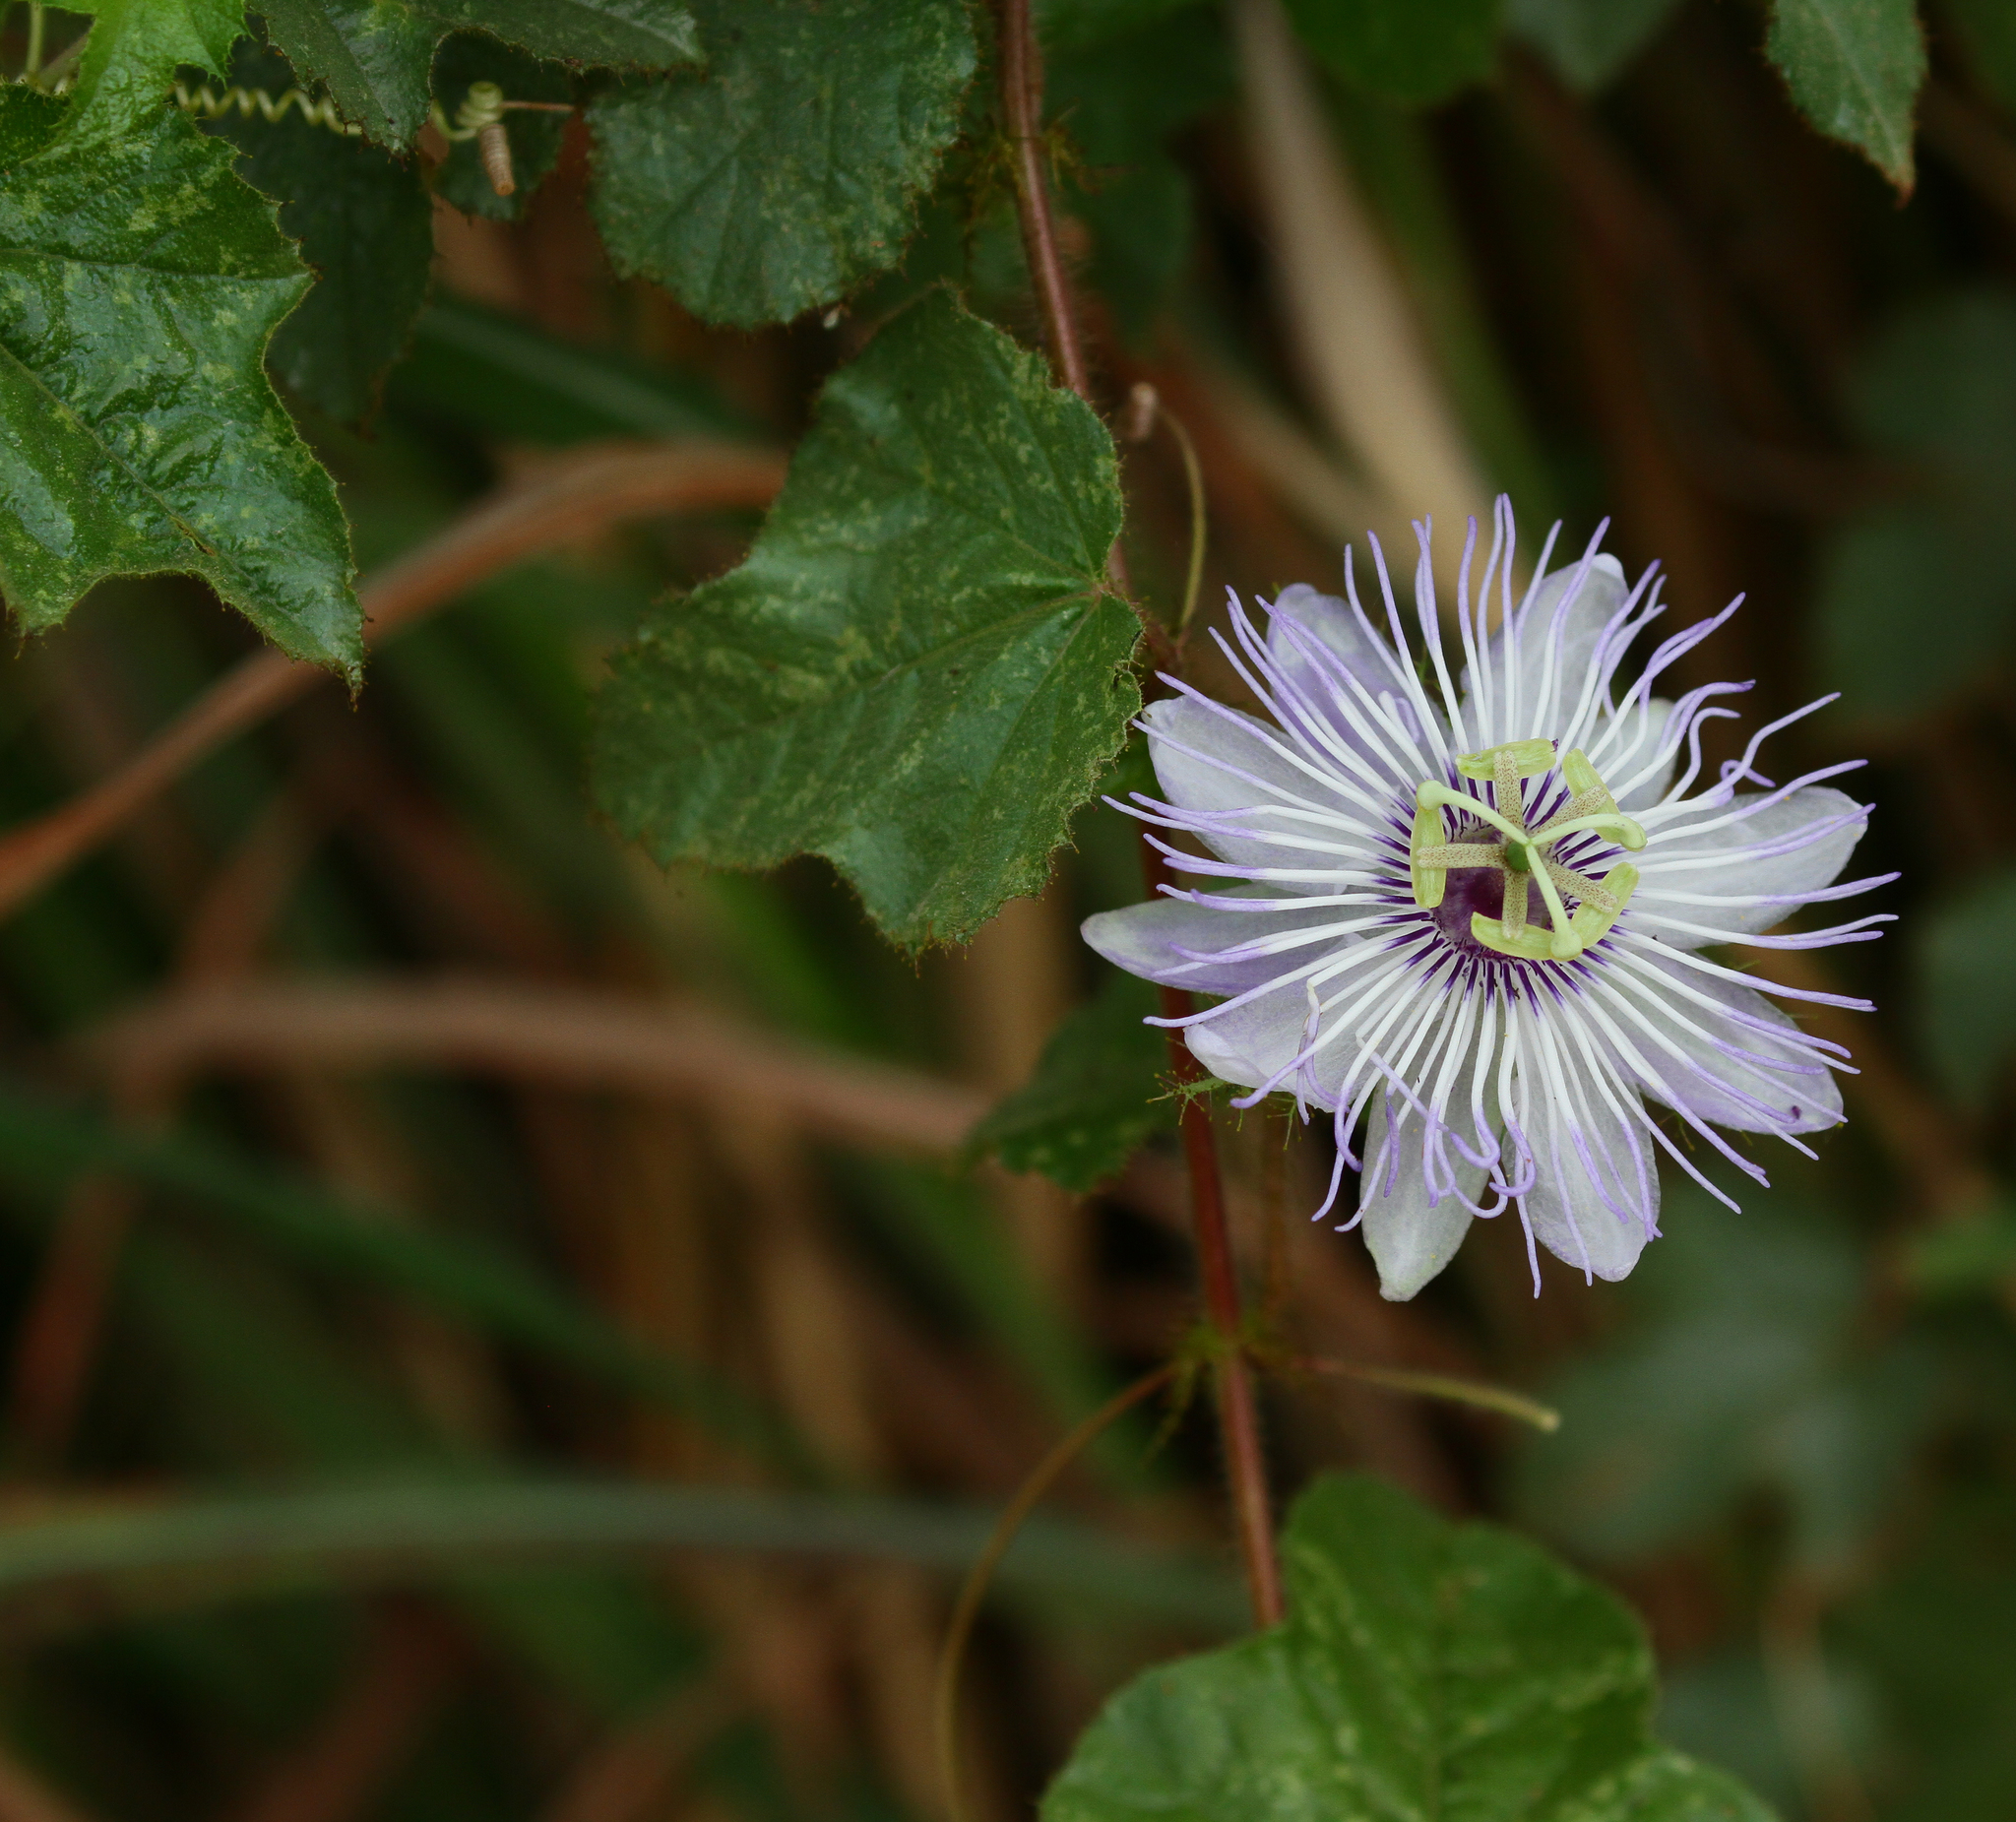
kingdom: Plantae
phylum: Tracheophyta
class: Magnoliopsida
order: Malpighiales
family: Passifloraceae
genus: Passiflora
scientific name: Passiflora foetida
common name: Fetid passionflower
